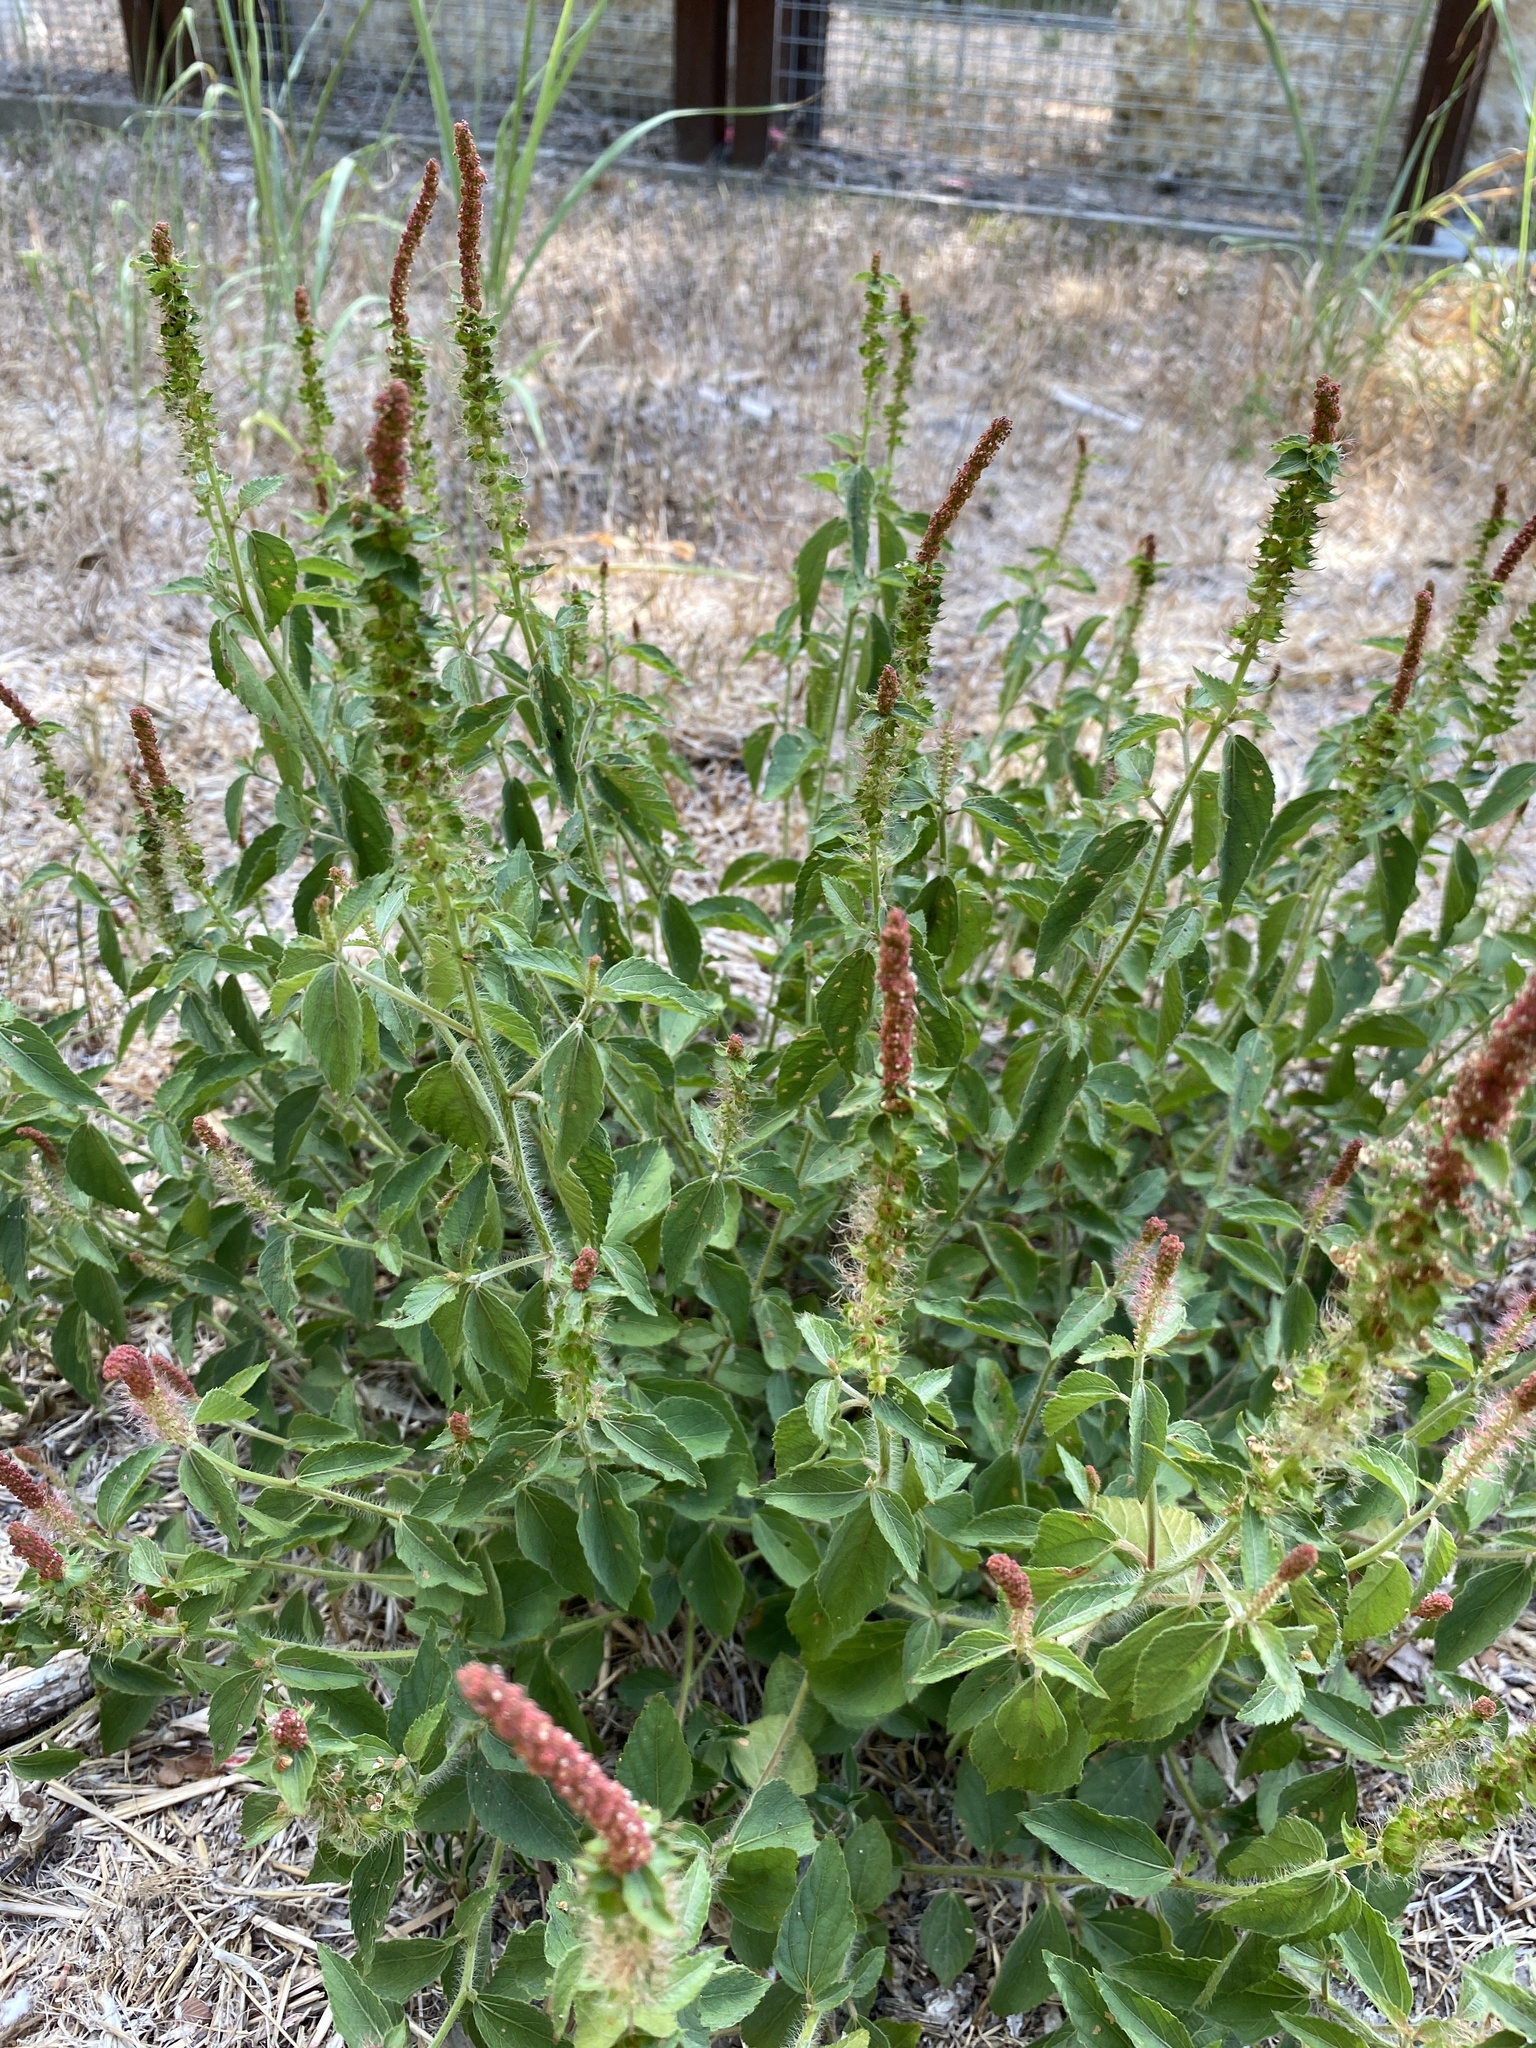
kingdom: Plantae
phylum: Tracheophyta
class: Magnoliopsida
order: Malpighiales
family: Euphorbiaceae
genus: Acalypha
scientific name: Acalypha phleoides
